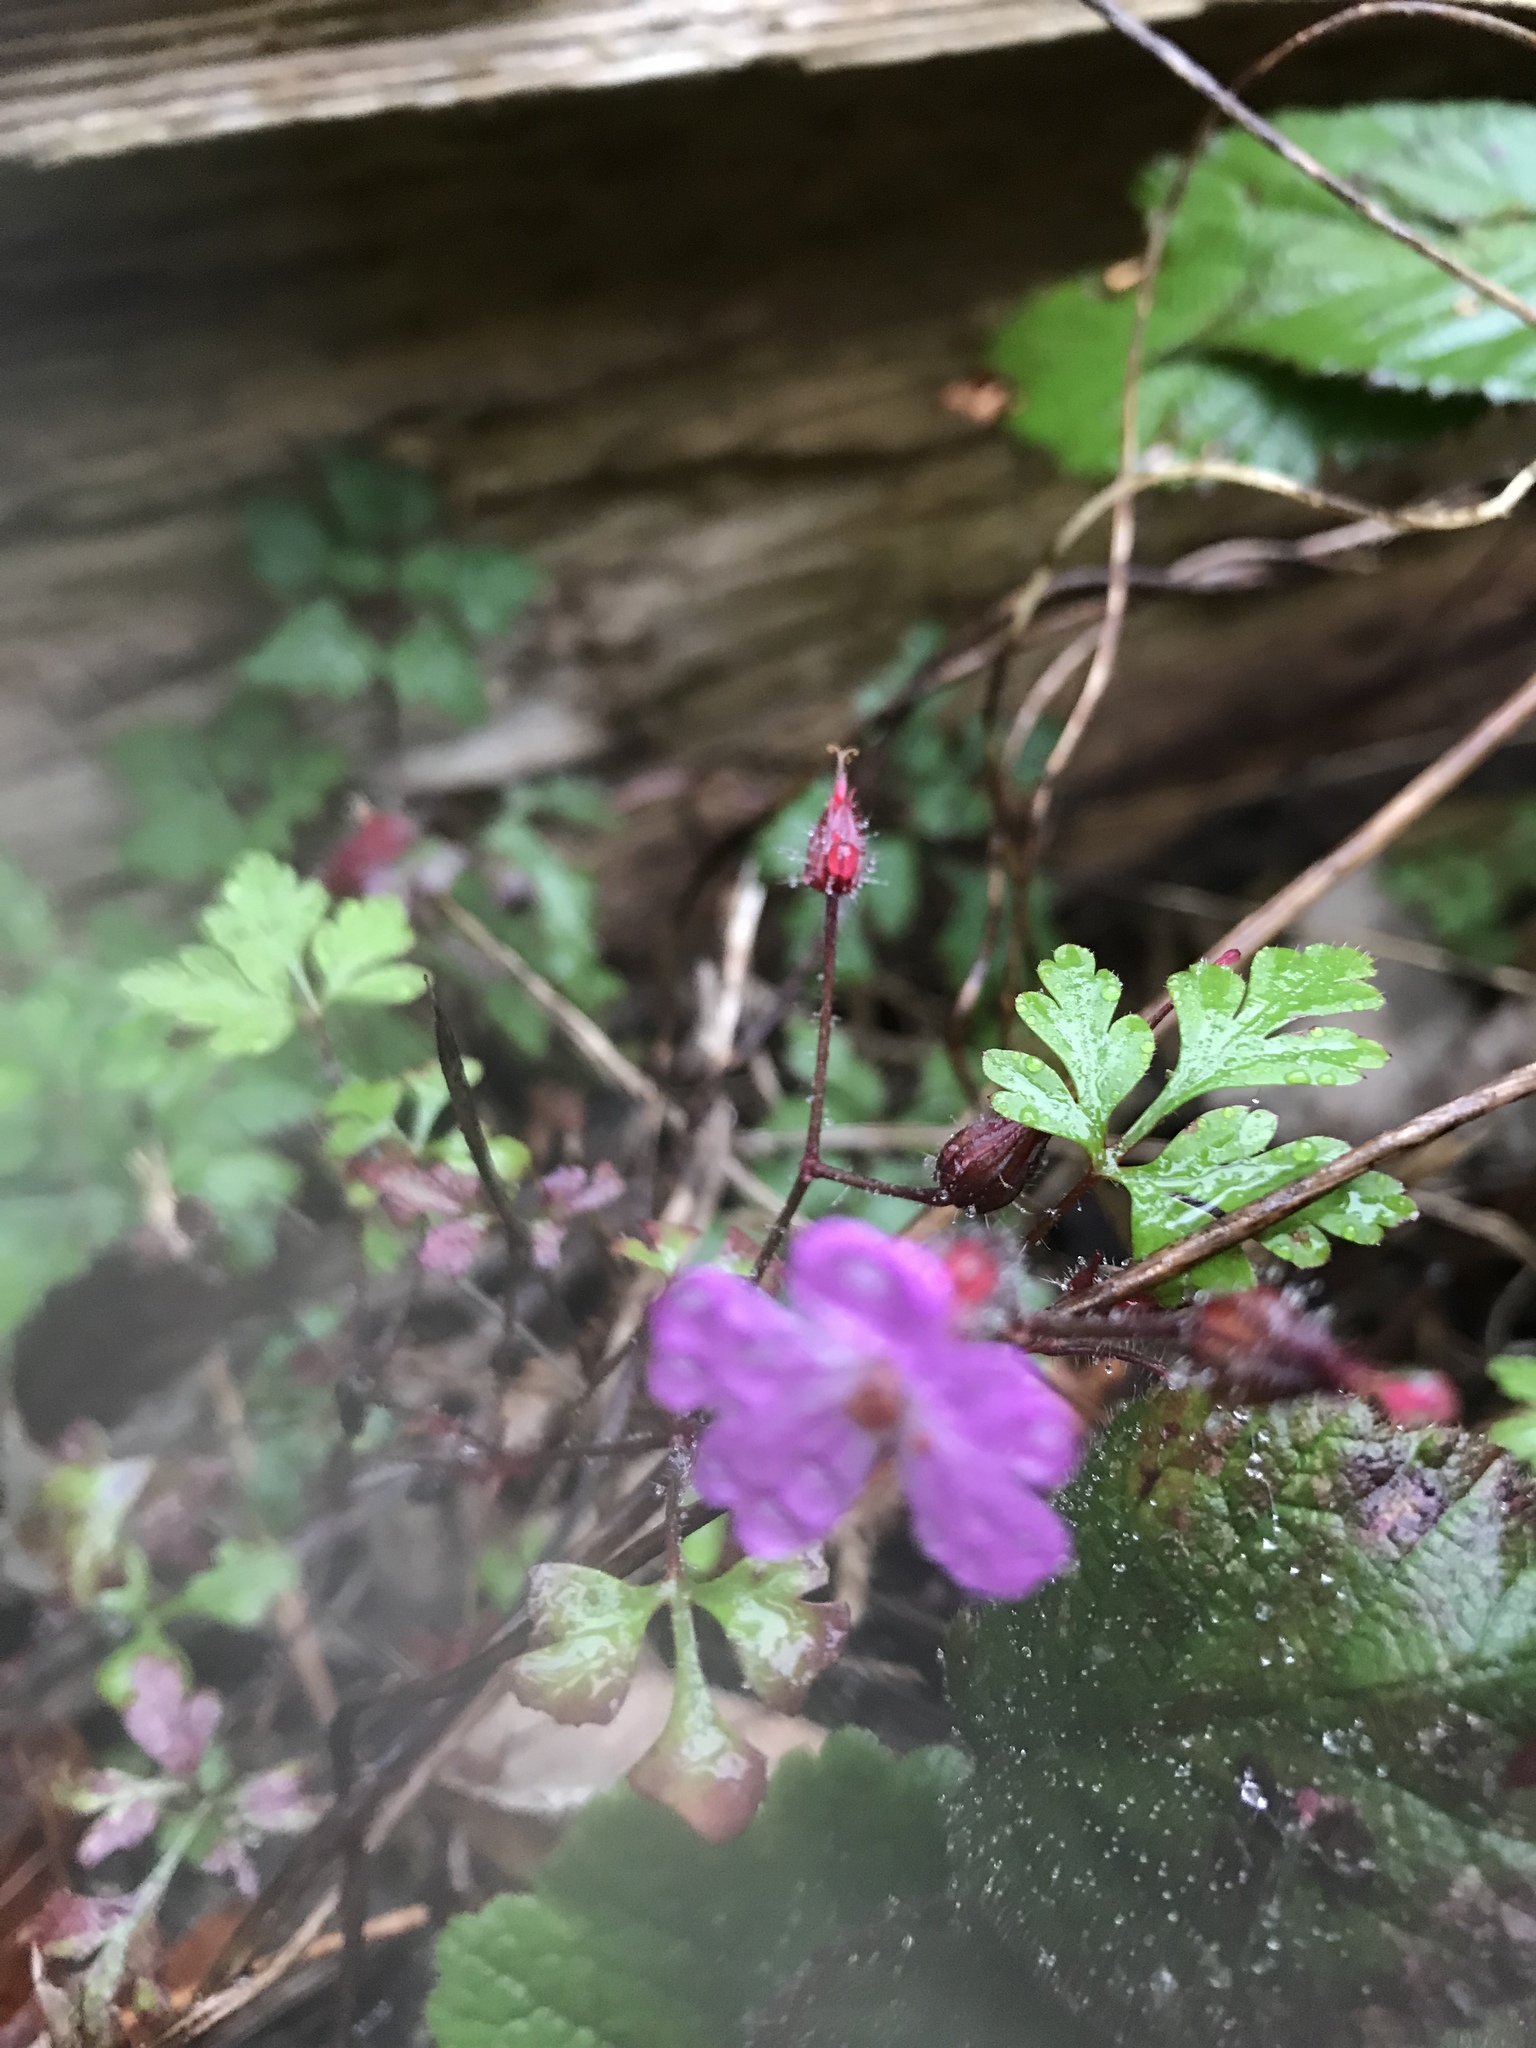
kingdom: Plantae
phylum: Tracheophyta
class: Magnoliopsida
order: Geraniales
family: Geraniaceae
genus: Geranium
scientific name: Geranium robertianum
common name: Herb-robert
